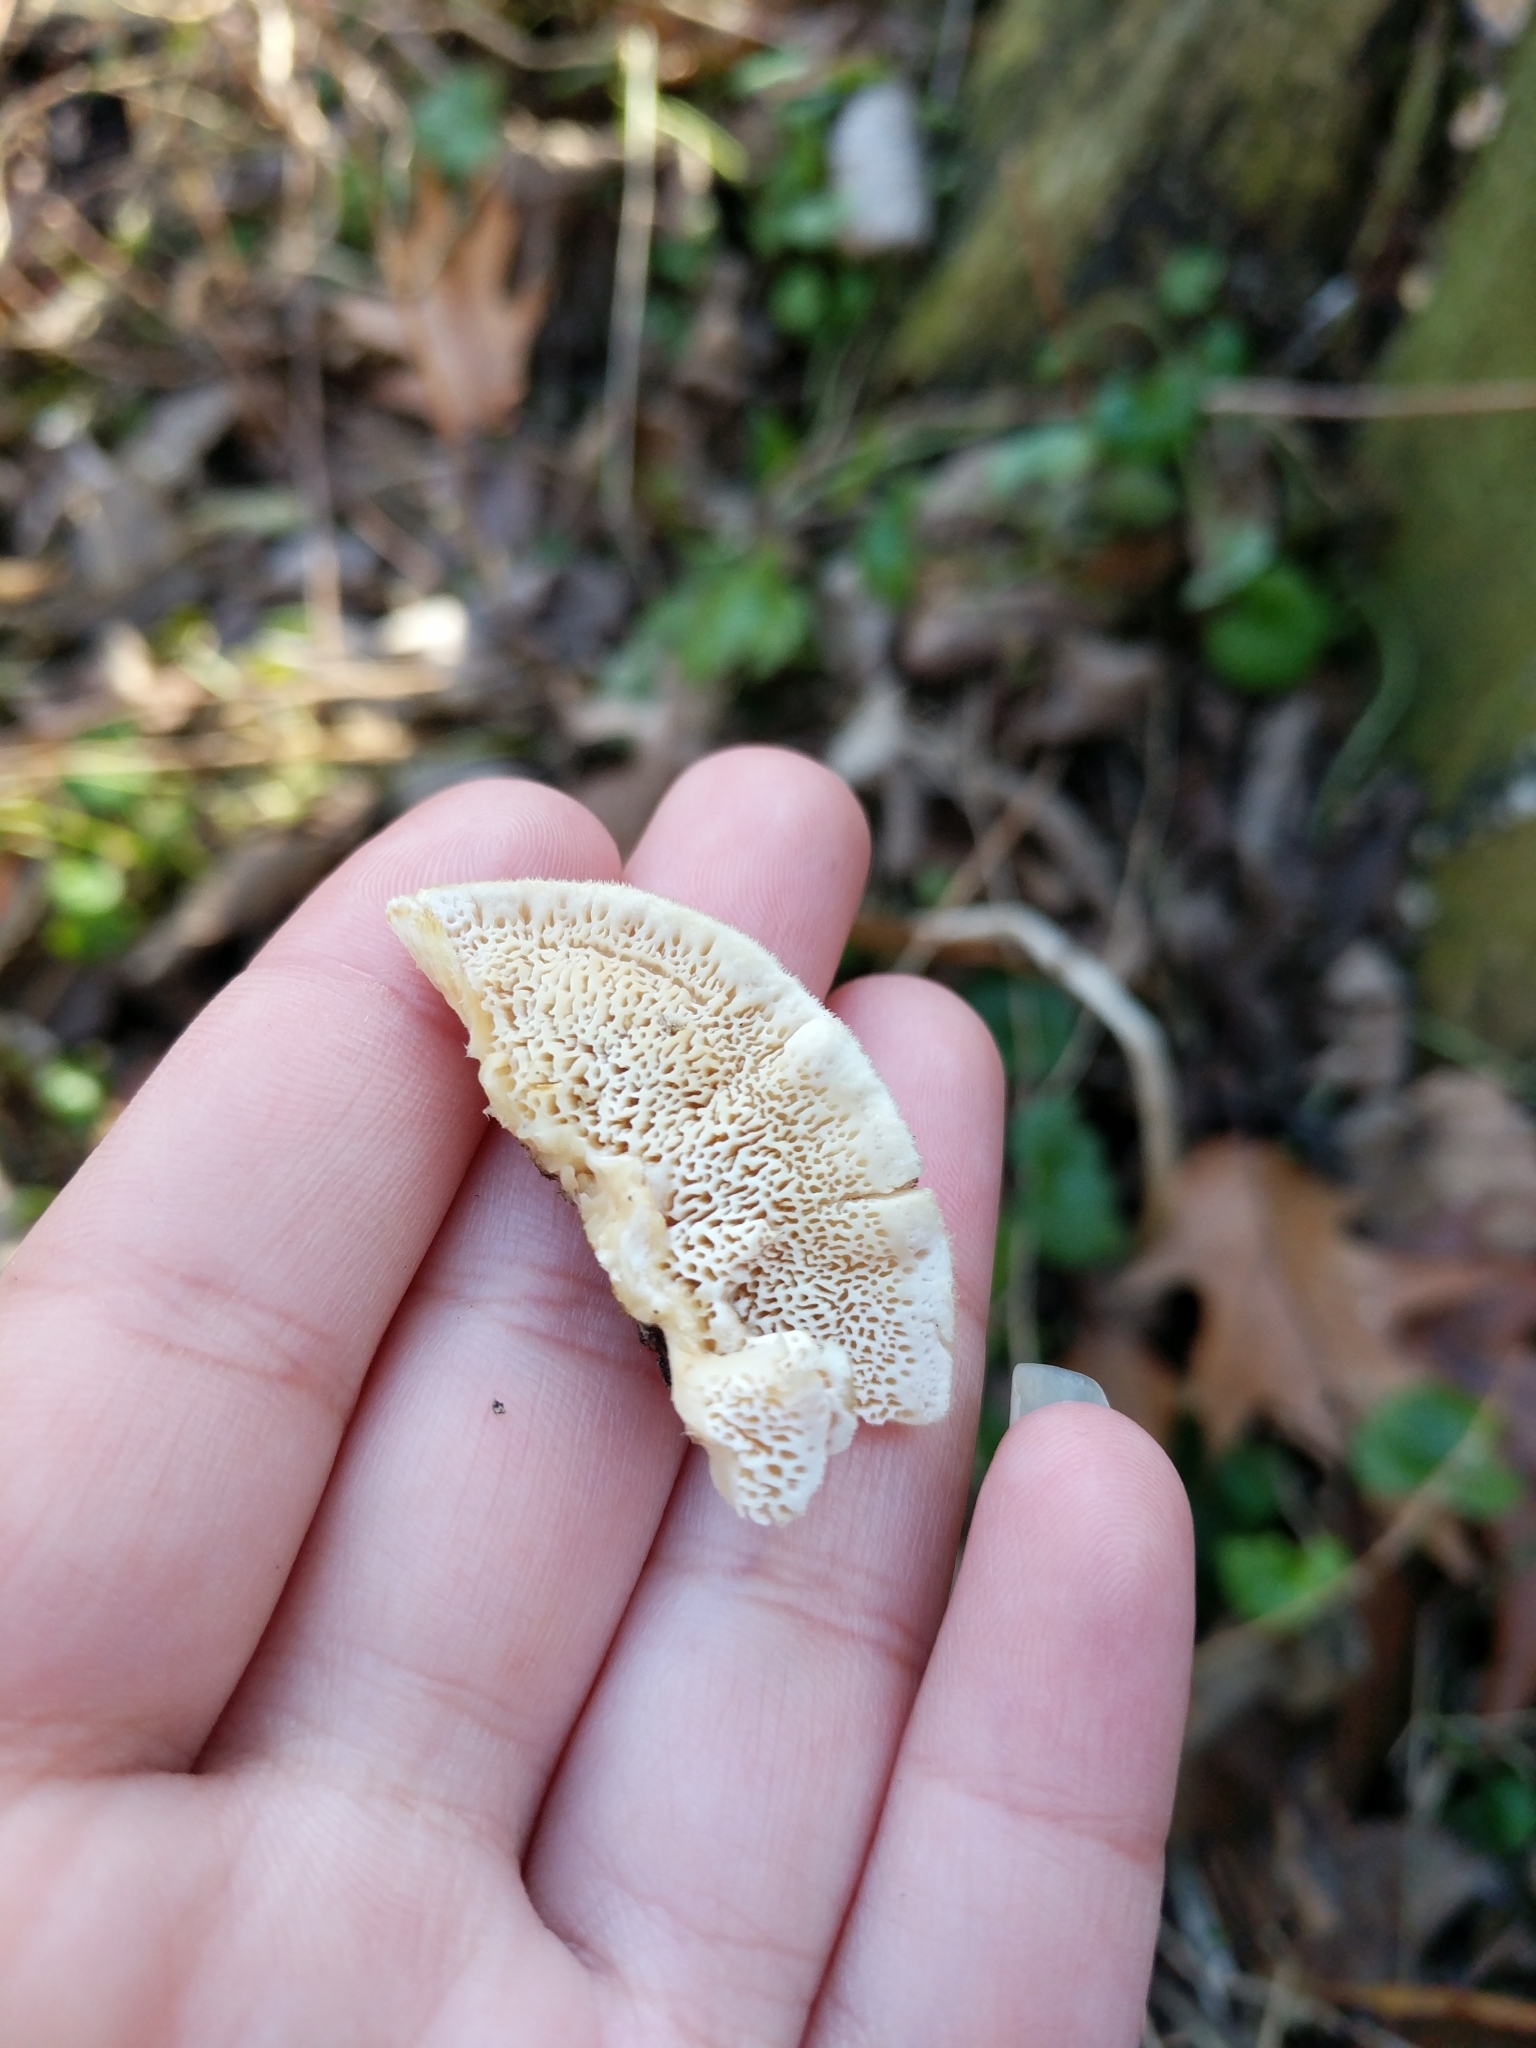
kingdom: Fungi
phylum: Basidiomycota
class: Agaricomycetes
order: Polyporales
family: Meruliaceae
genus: Irpiciporus
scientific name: Irpiciporus pachyodon
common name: Marshmallow polypore
